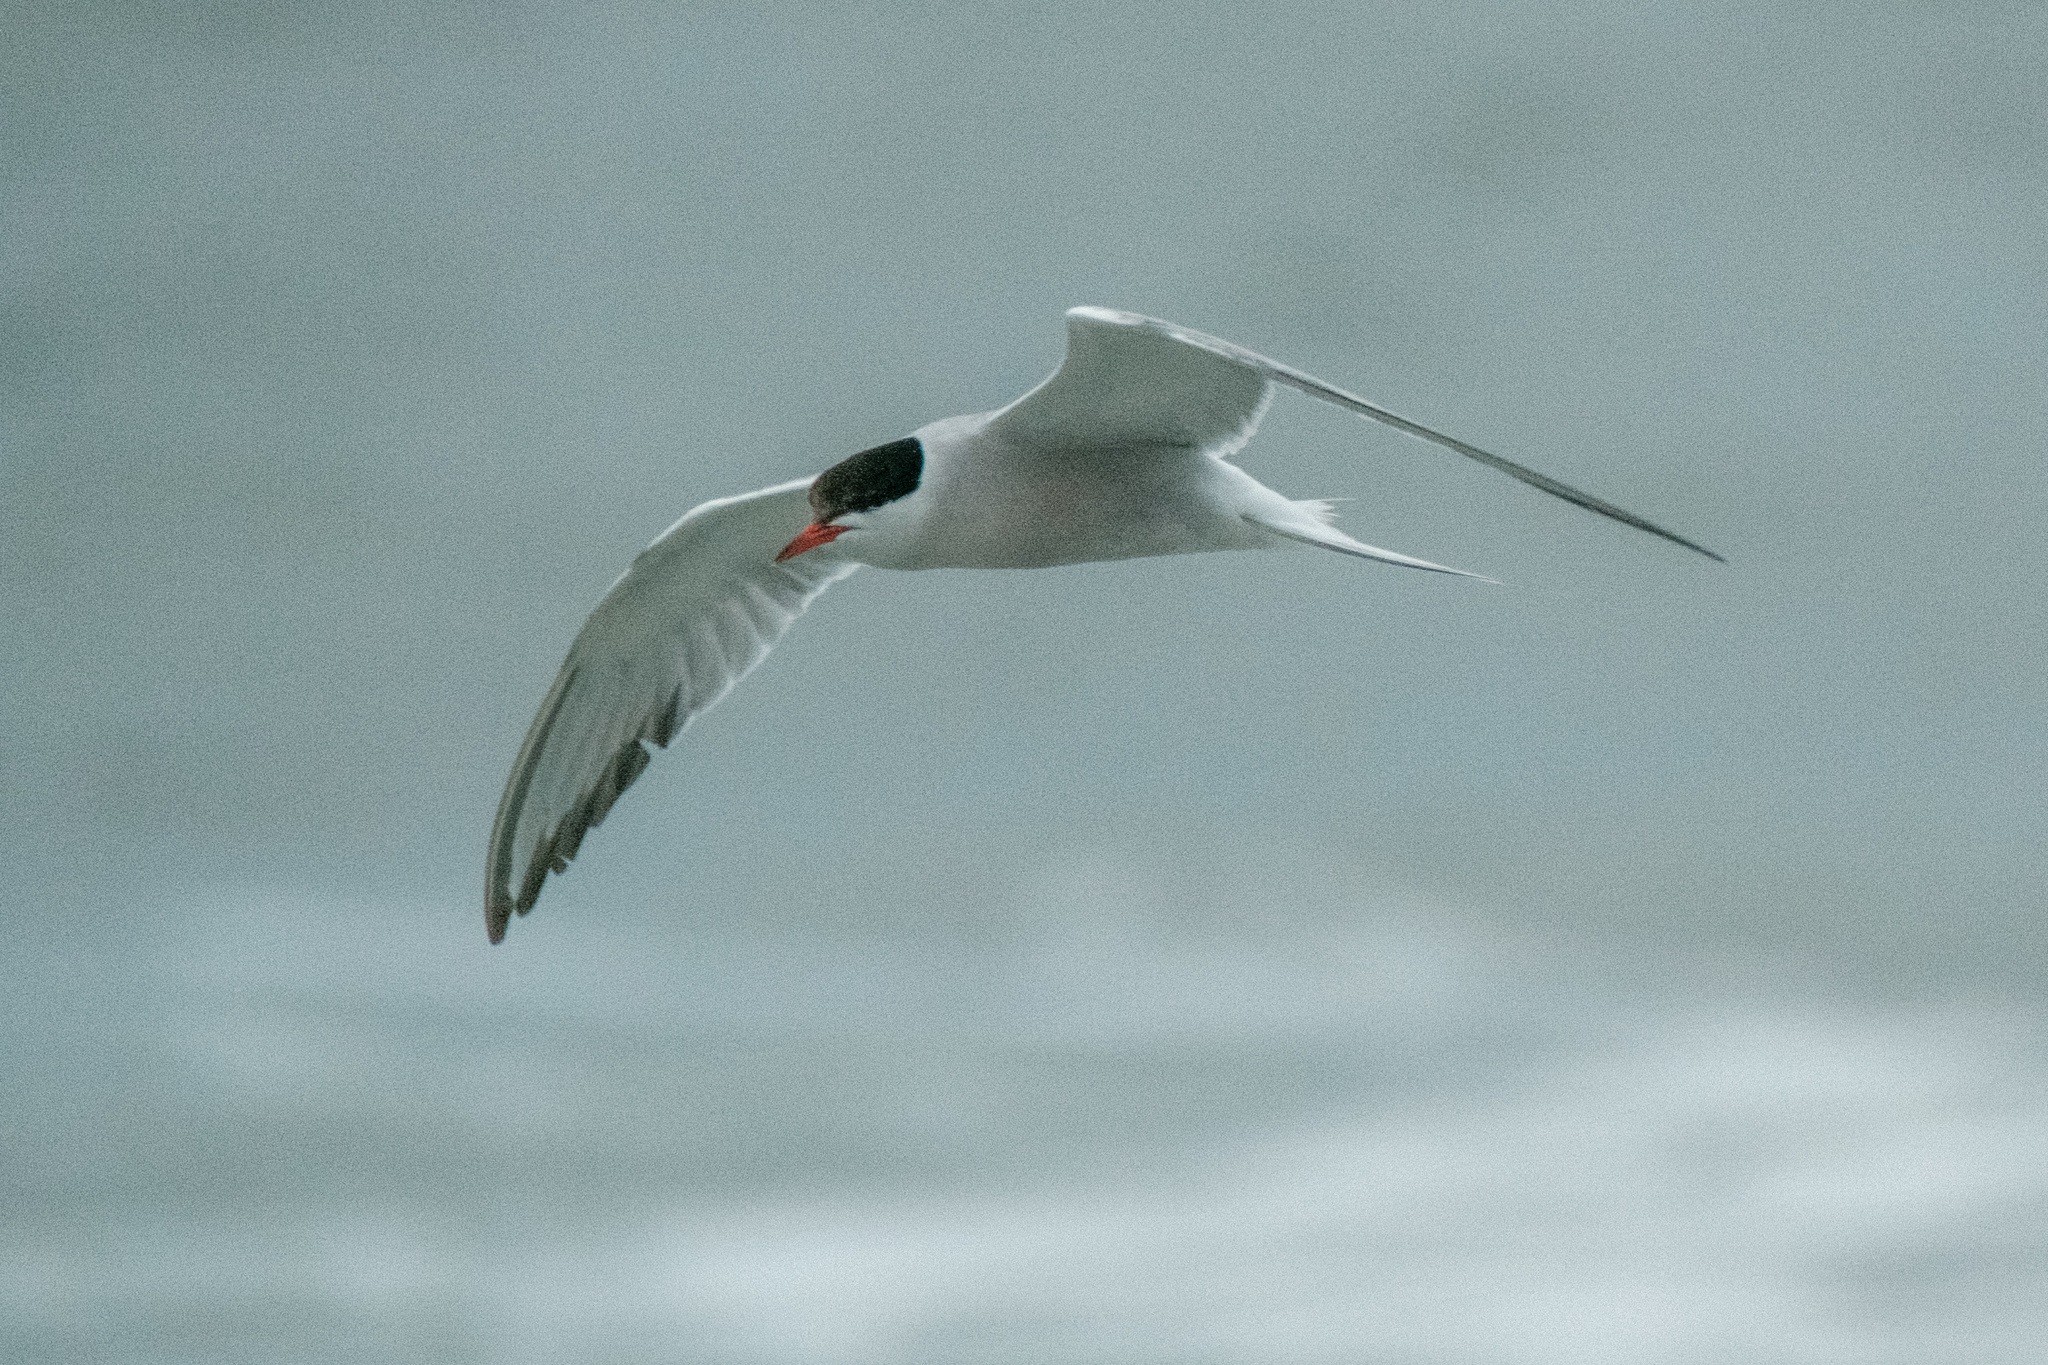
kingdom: Animalia
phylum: Chordata
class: Aves
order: Charadriiformes
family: Laridae
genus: Sterna
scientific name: Sterna hirundo
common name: Common tern
